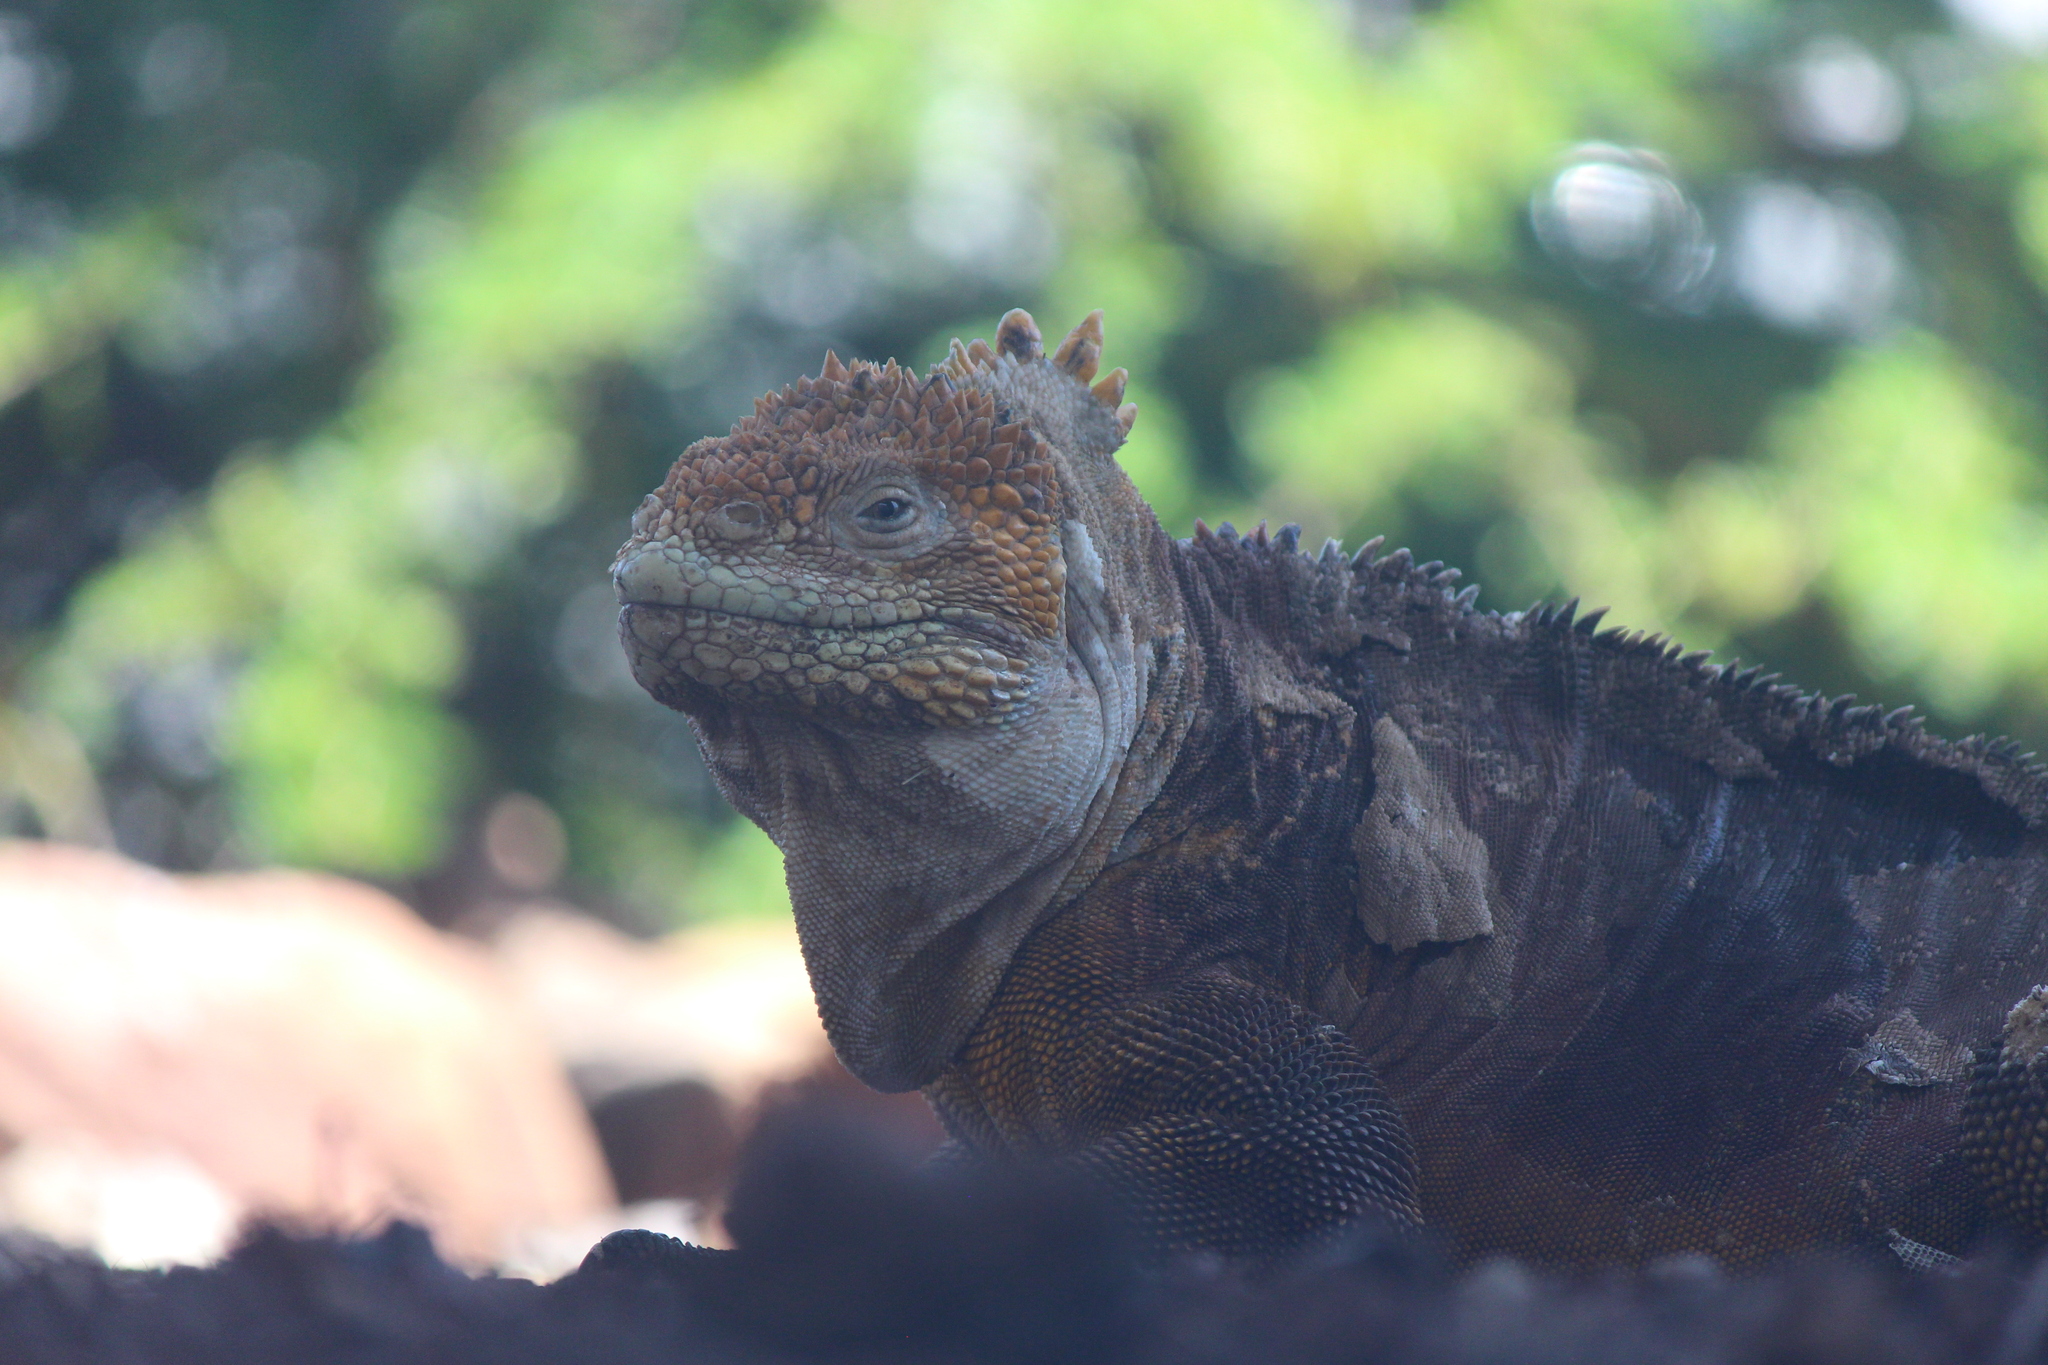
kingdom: Animalia
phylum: Chordata
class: Squamata
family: Iguanidae
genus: Conolophus
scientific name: Conolophus subcristatus
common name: Galapagos land iguana
